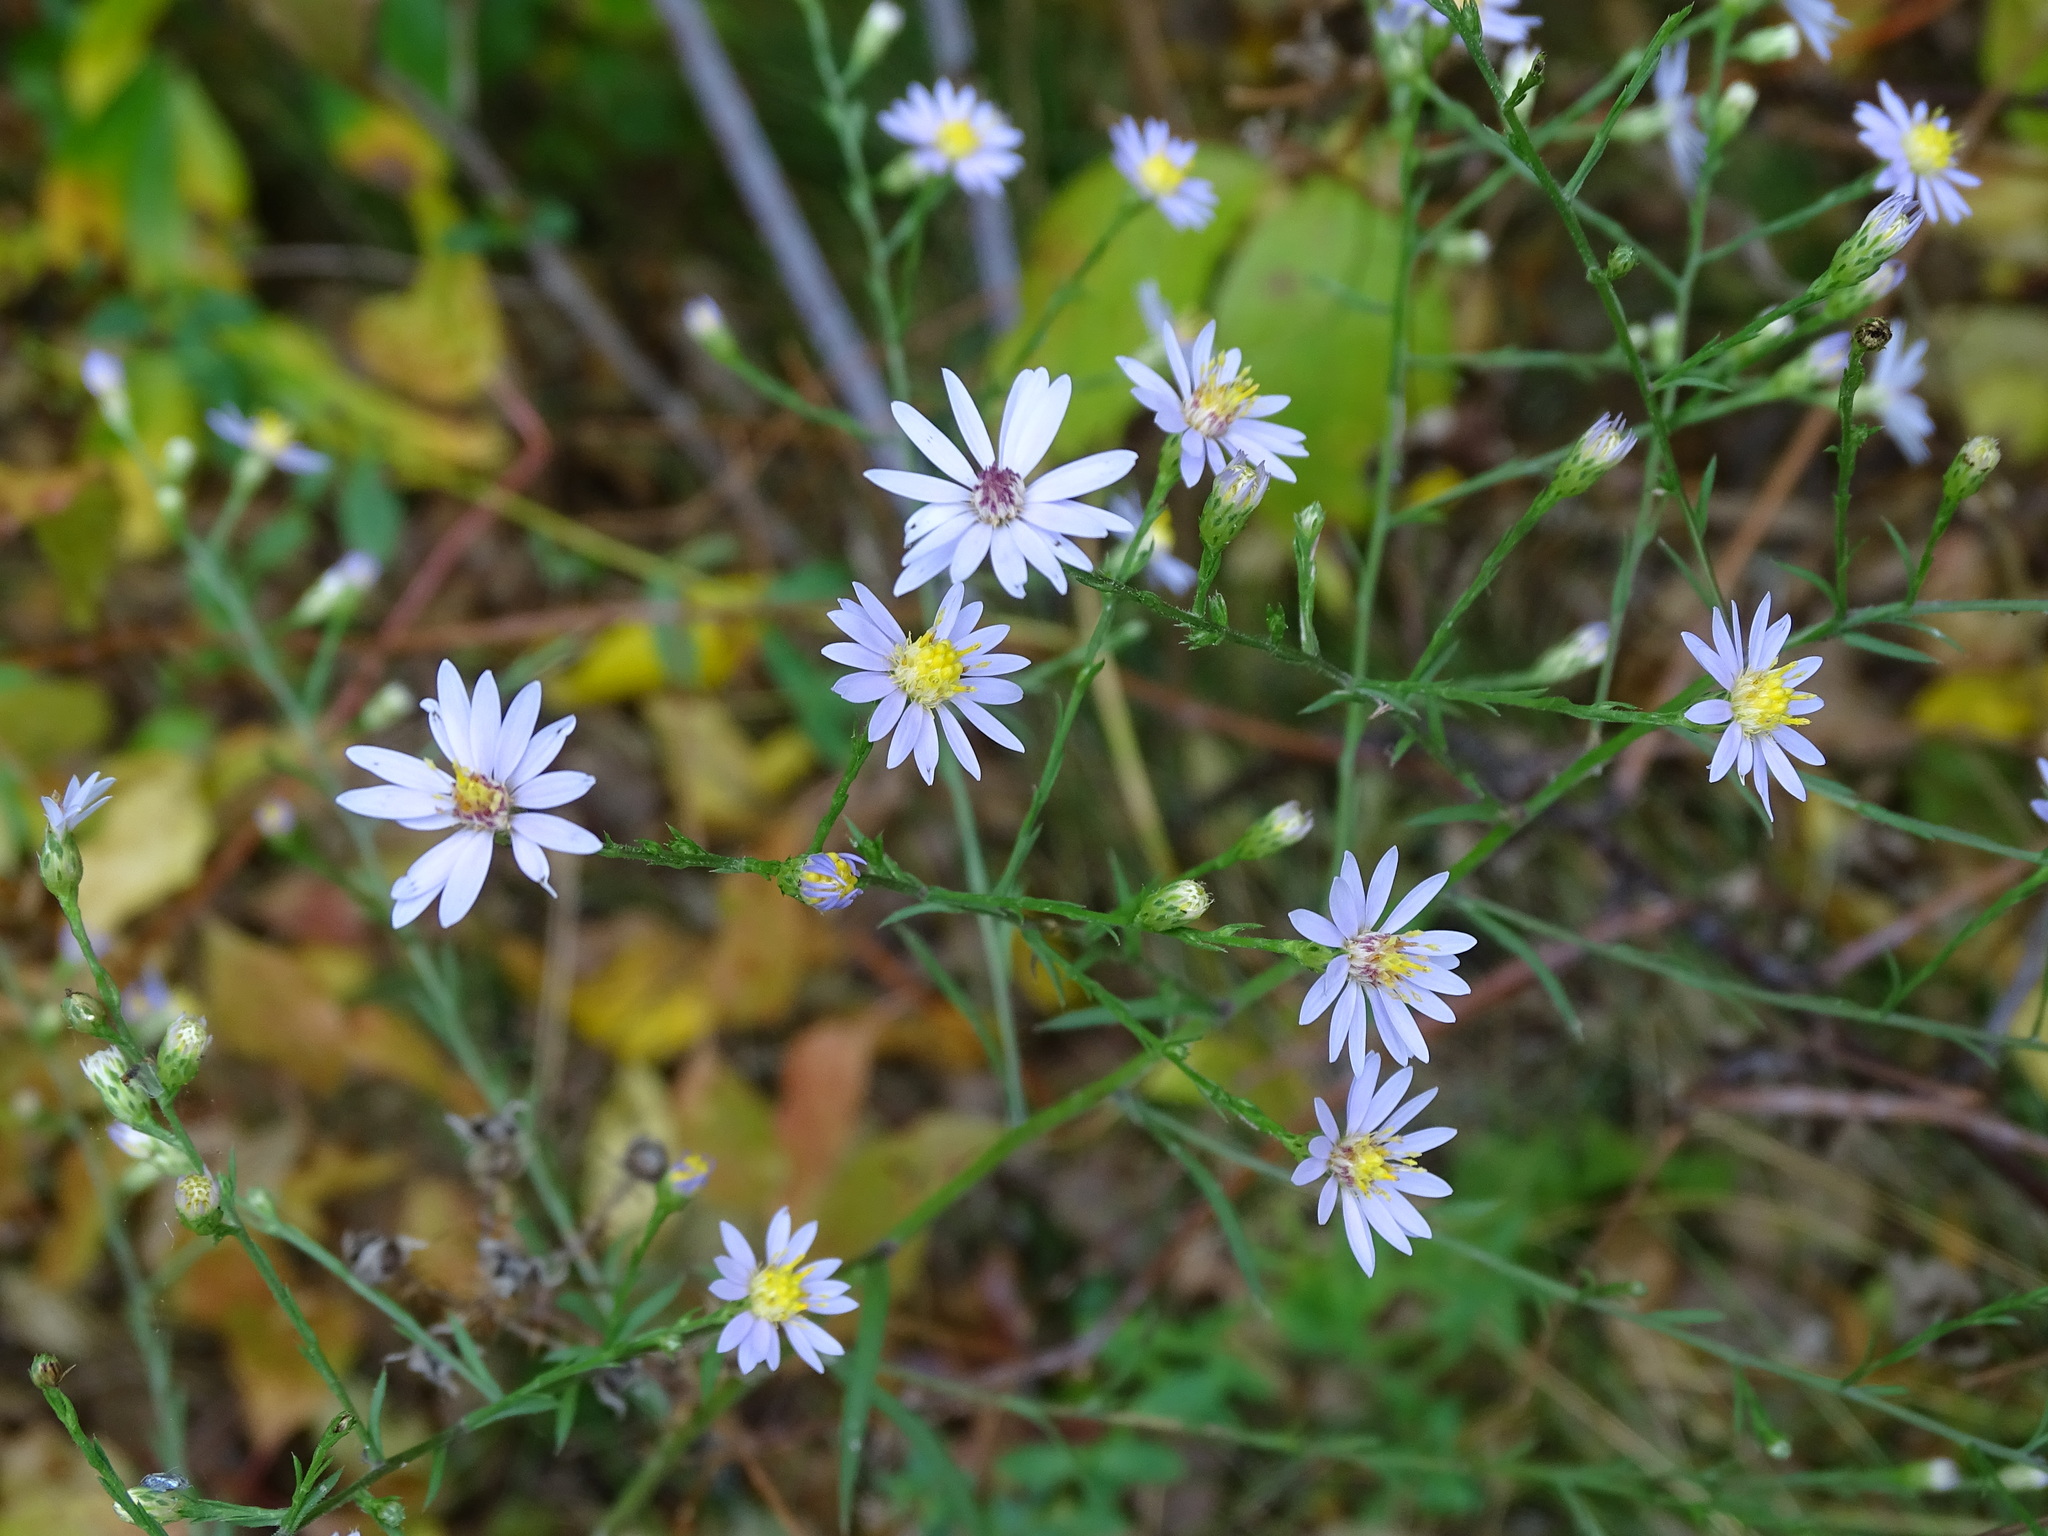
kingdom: Plantae
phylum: Tracheophyta
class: Magnoliopsida
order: Asterales
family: Asteraceae
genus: Symphyotrichum
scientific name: Symphyotrichum oolentangiense
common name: Azure aster
